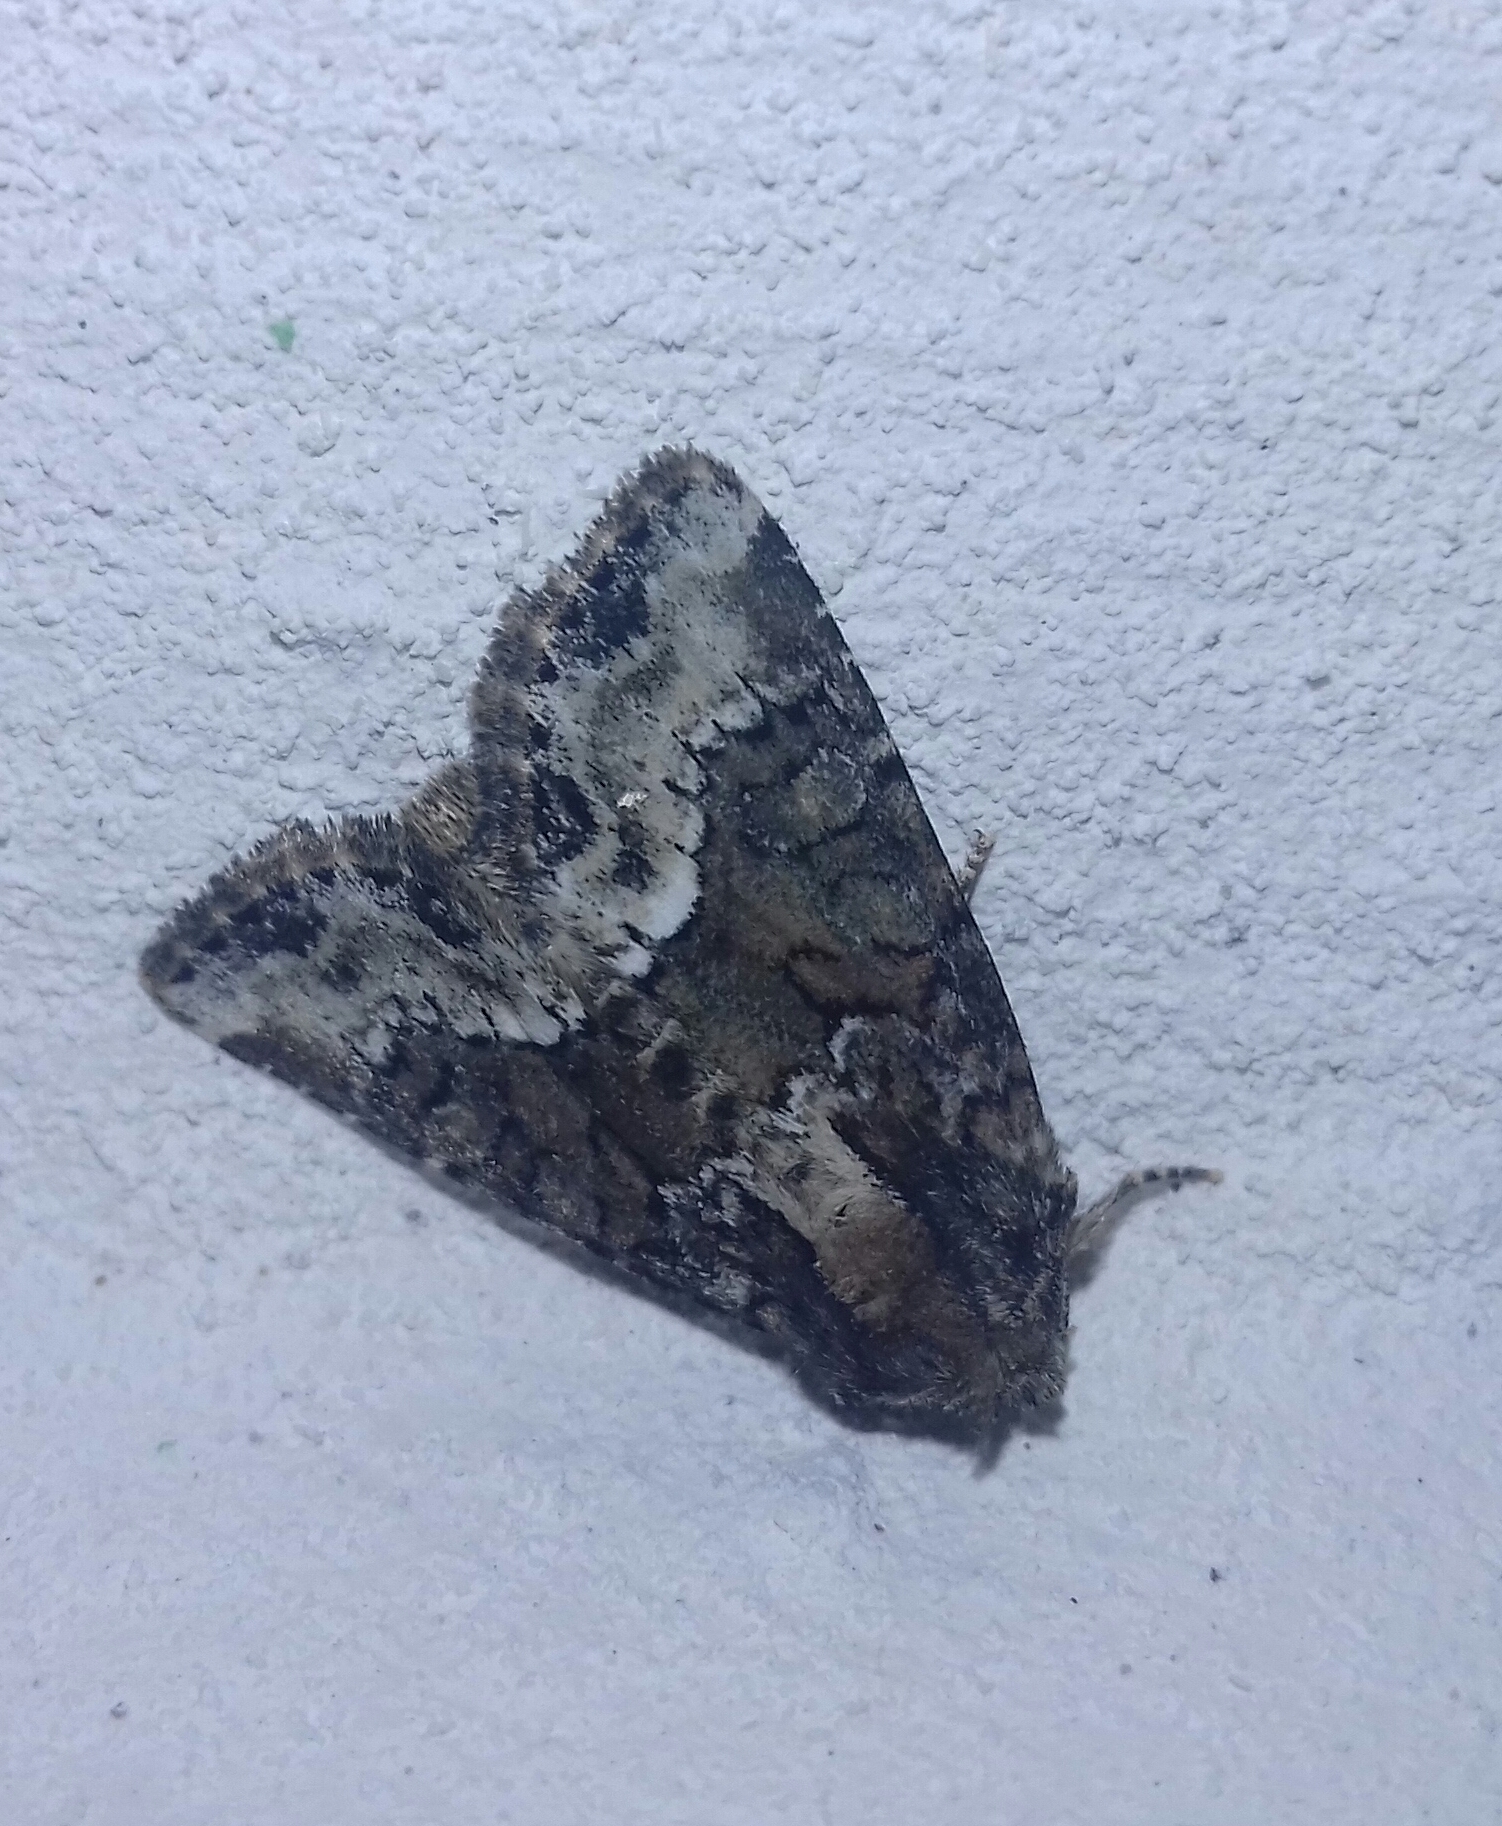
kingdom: Animalia
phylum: Arthropoda
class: Insecta
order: Lepidoptera
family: Noctuidae
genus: Oligia
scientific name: Oligia strigilis
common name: Marbled minor
